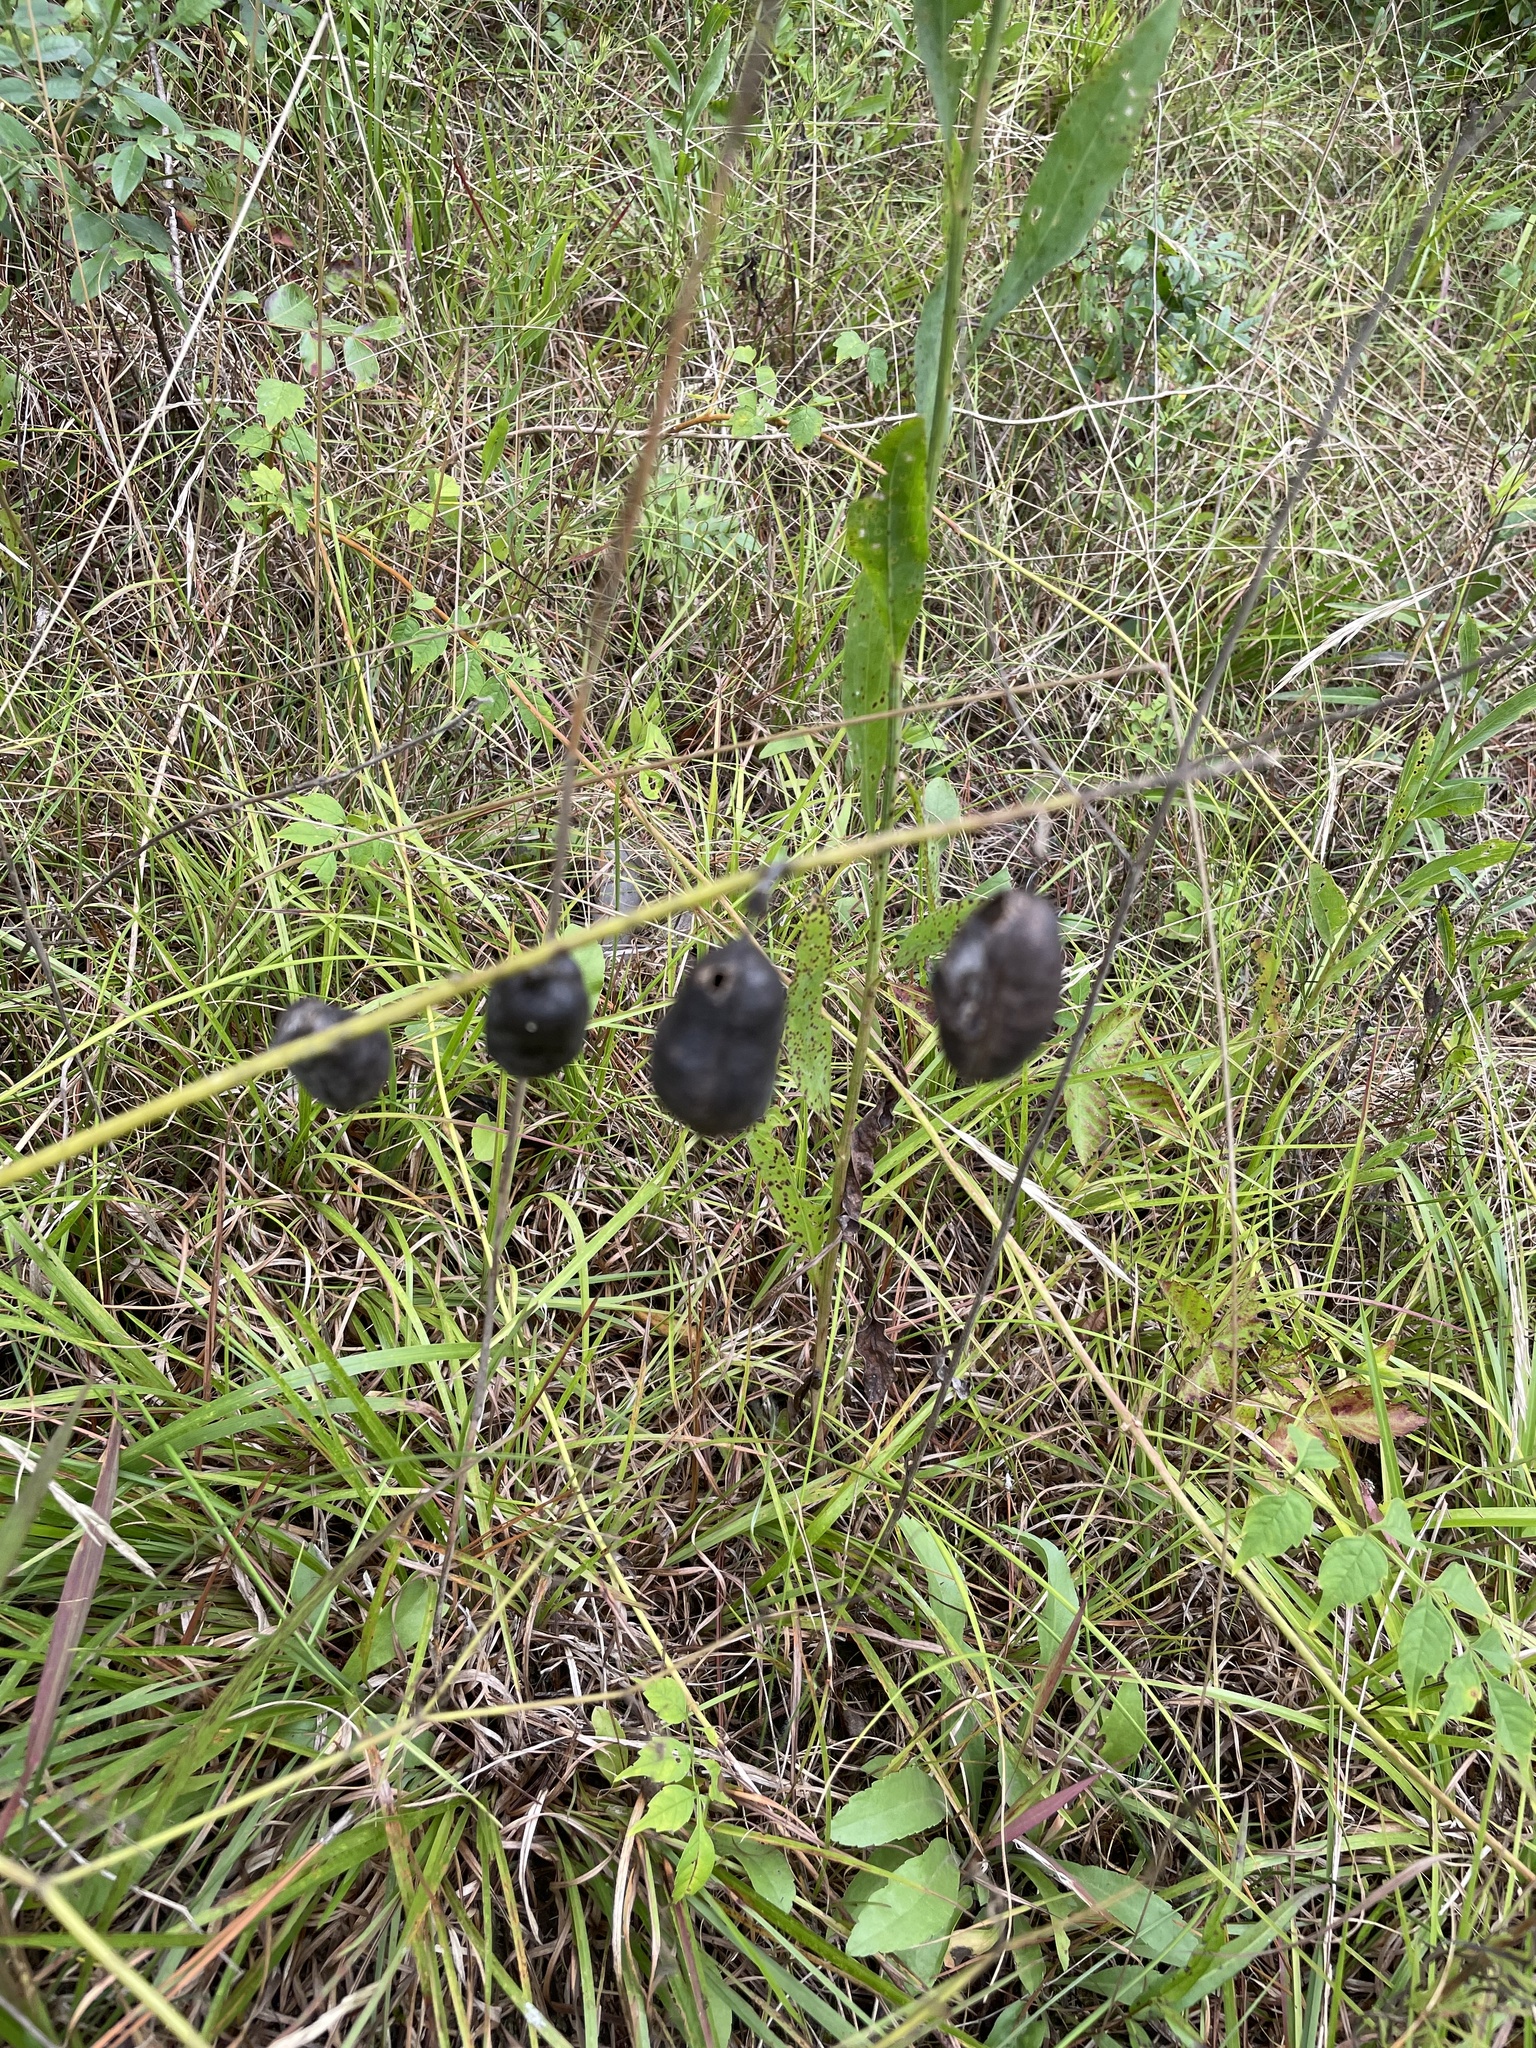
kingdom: Plantae
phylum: Tracheophyta
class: Magnoliopsida
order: Fabales
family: Fabaceae
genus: Baptisia
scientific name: Baptisia alba
